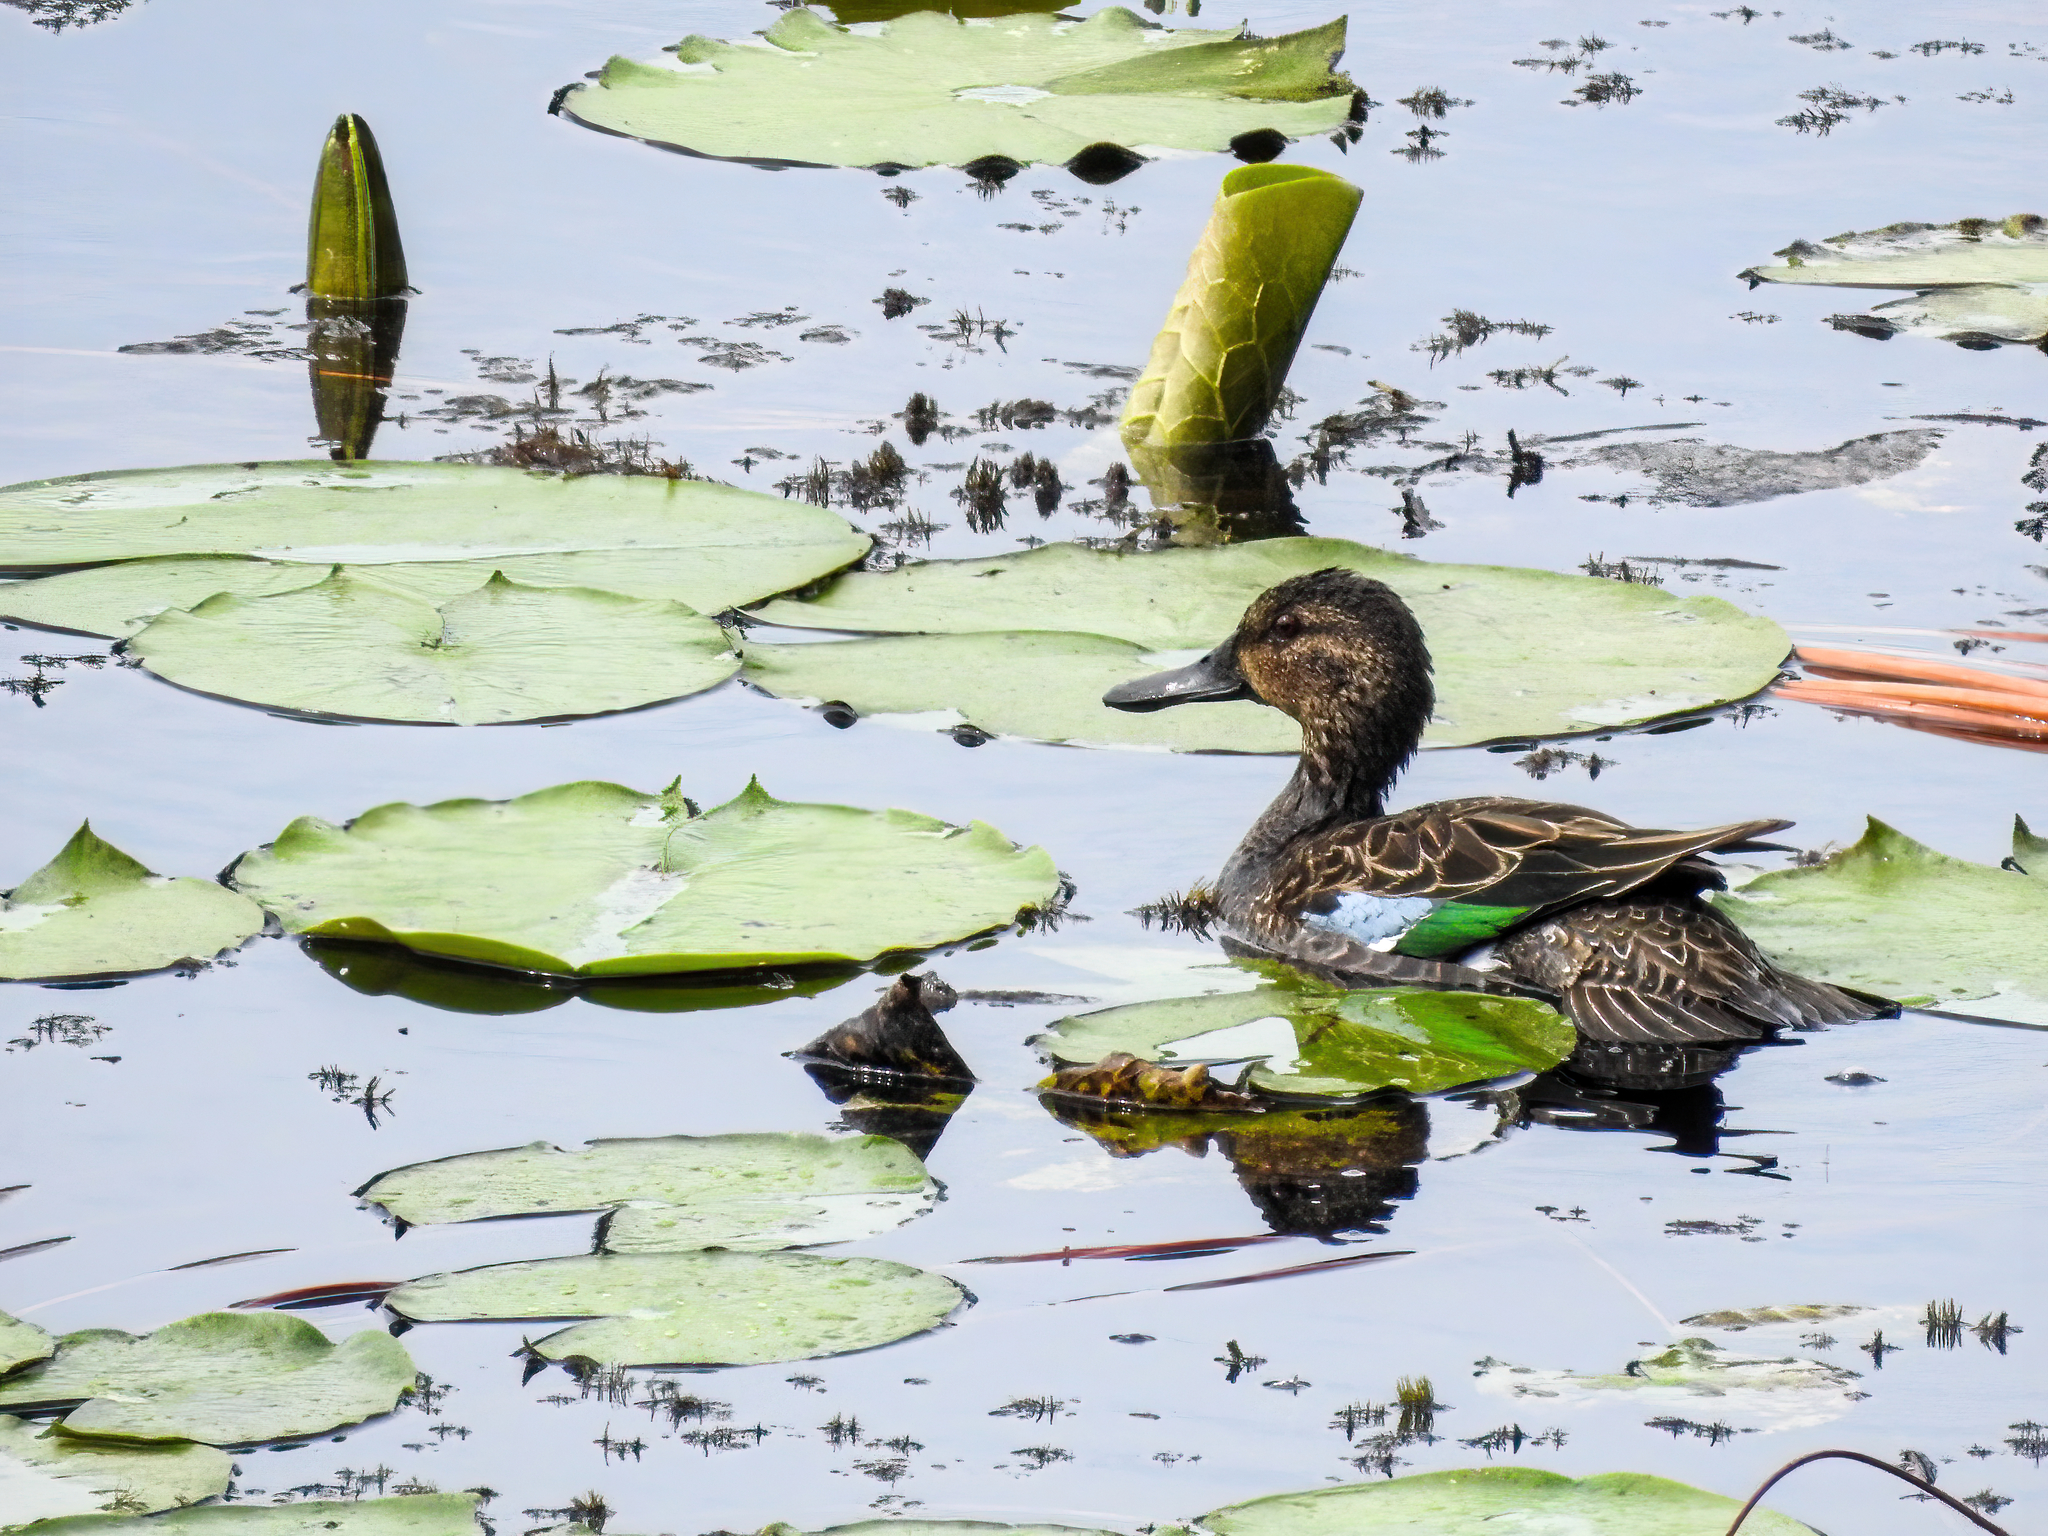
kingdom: Animalia
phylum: Chordata
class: Aves
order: Anseriformes
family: Anatidae
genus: Spatula
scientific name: Spatula discors
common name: Blue-winged teal
